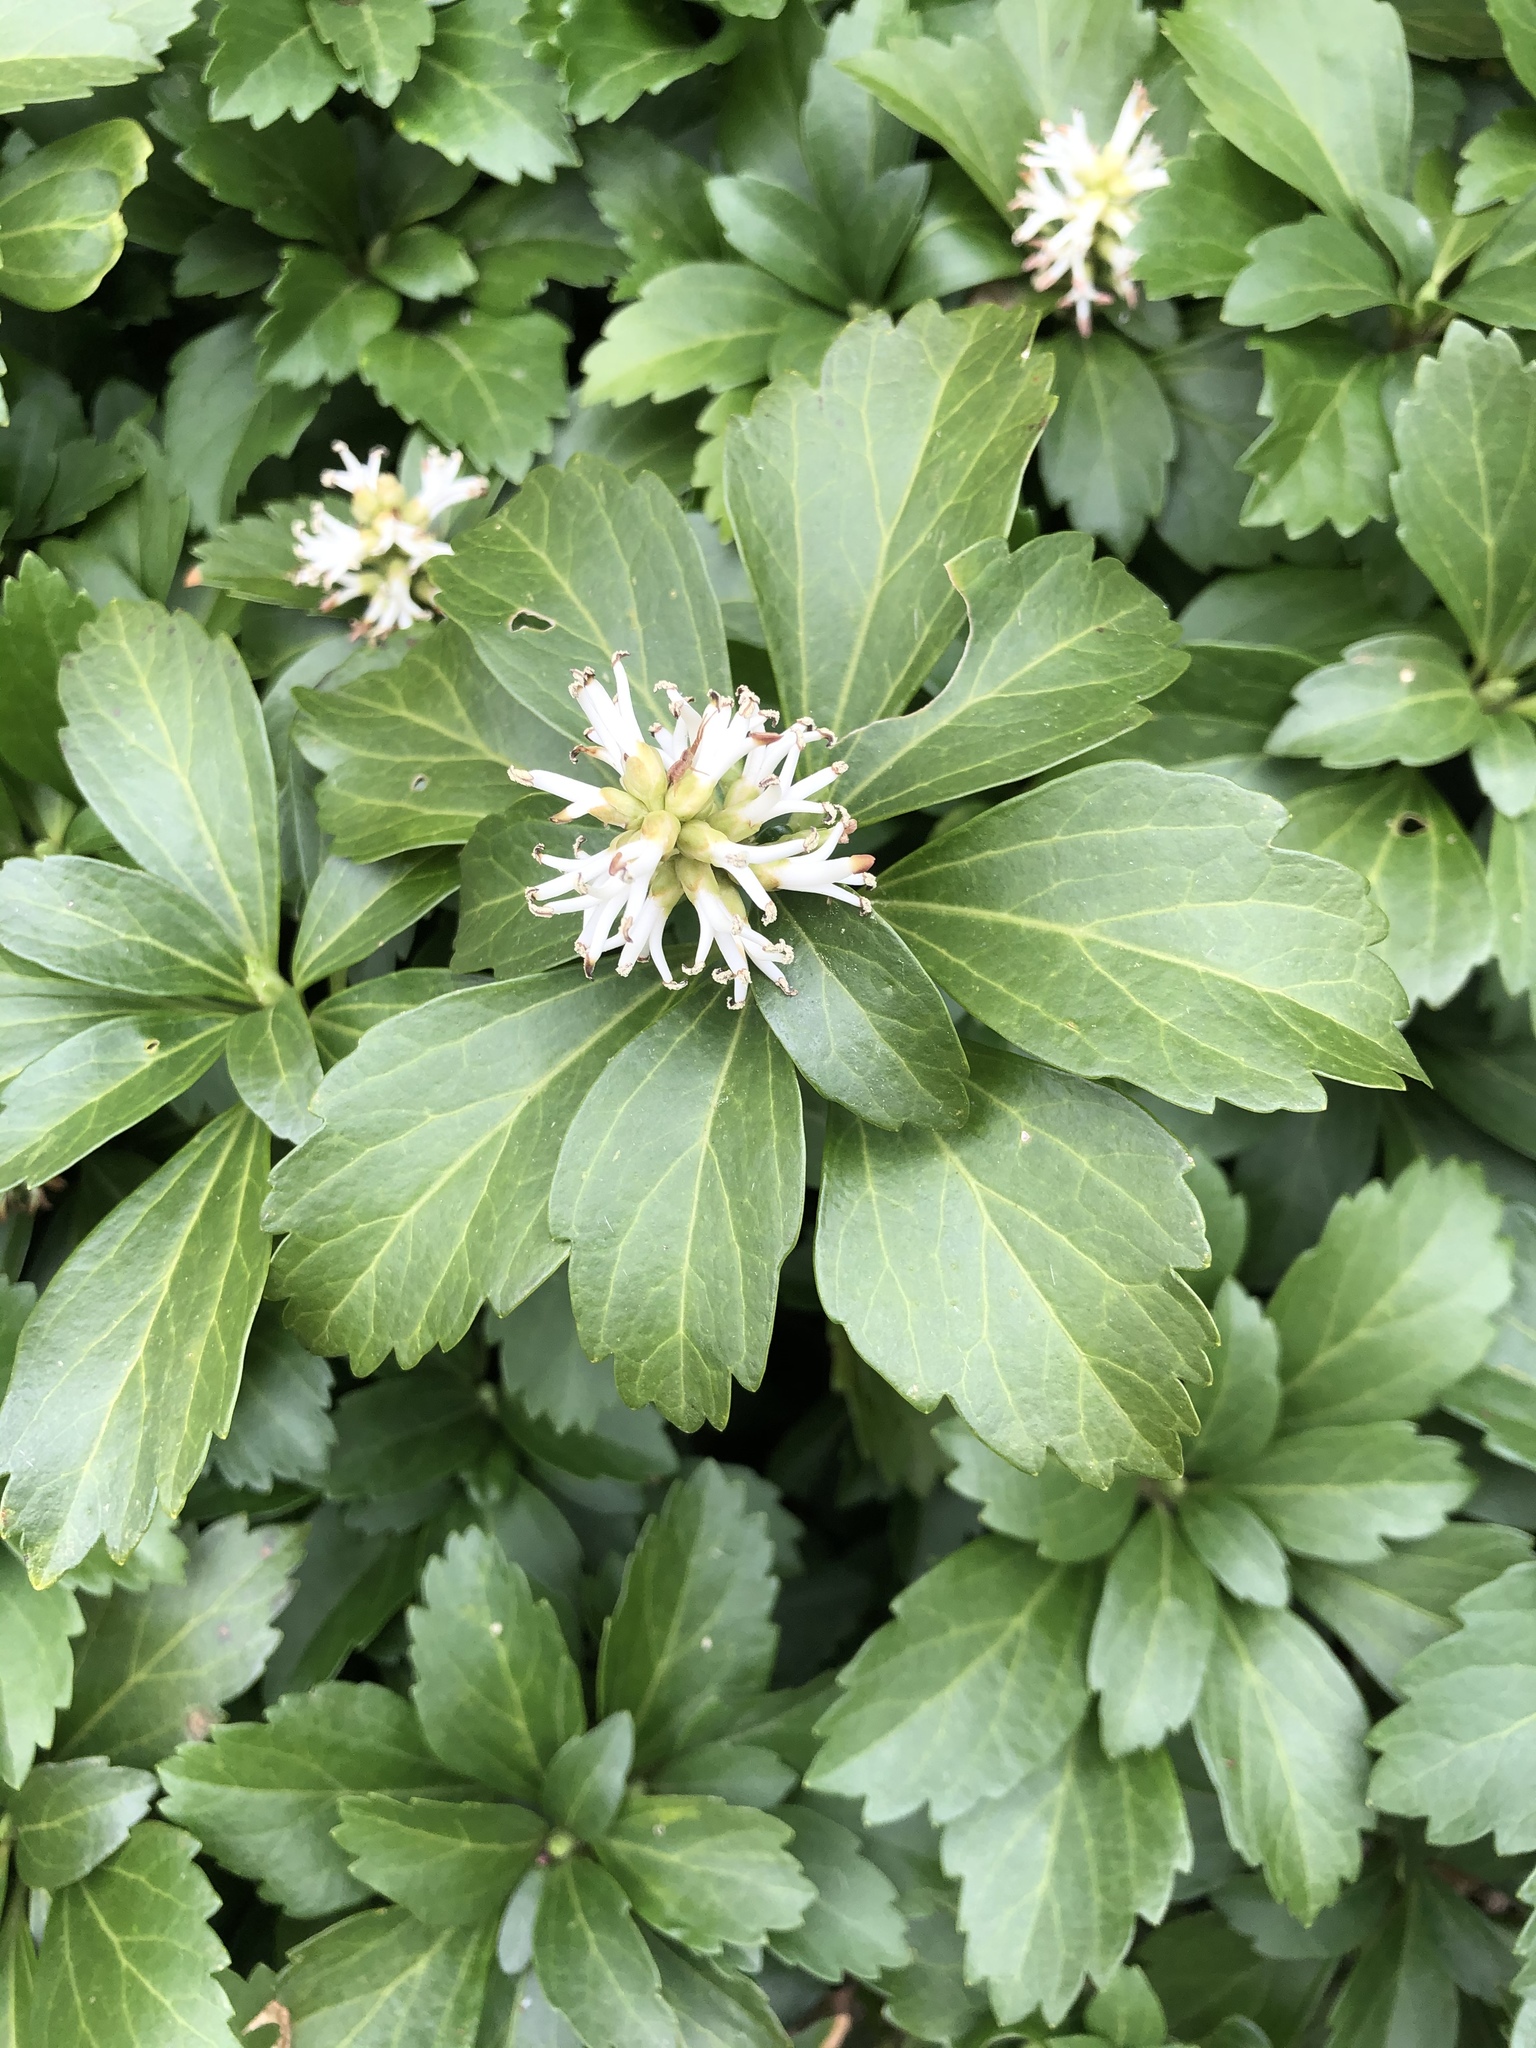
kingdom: Plantae
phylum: Tracheophyta
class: Magnoliopsida
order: Buxales
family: Buxaceae
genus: Pachysandra
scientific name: Pachysandra terminalis
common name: Japanese pachysandra
